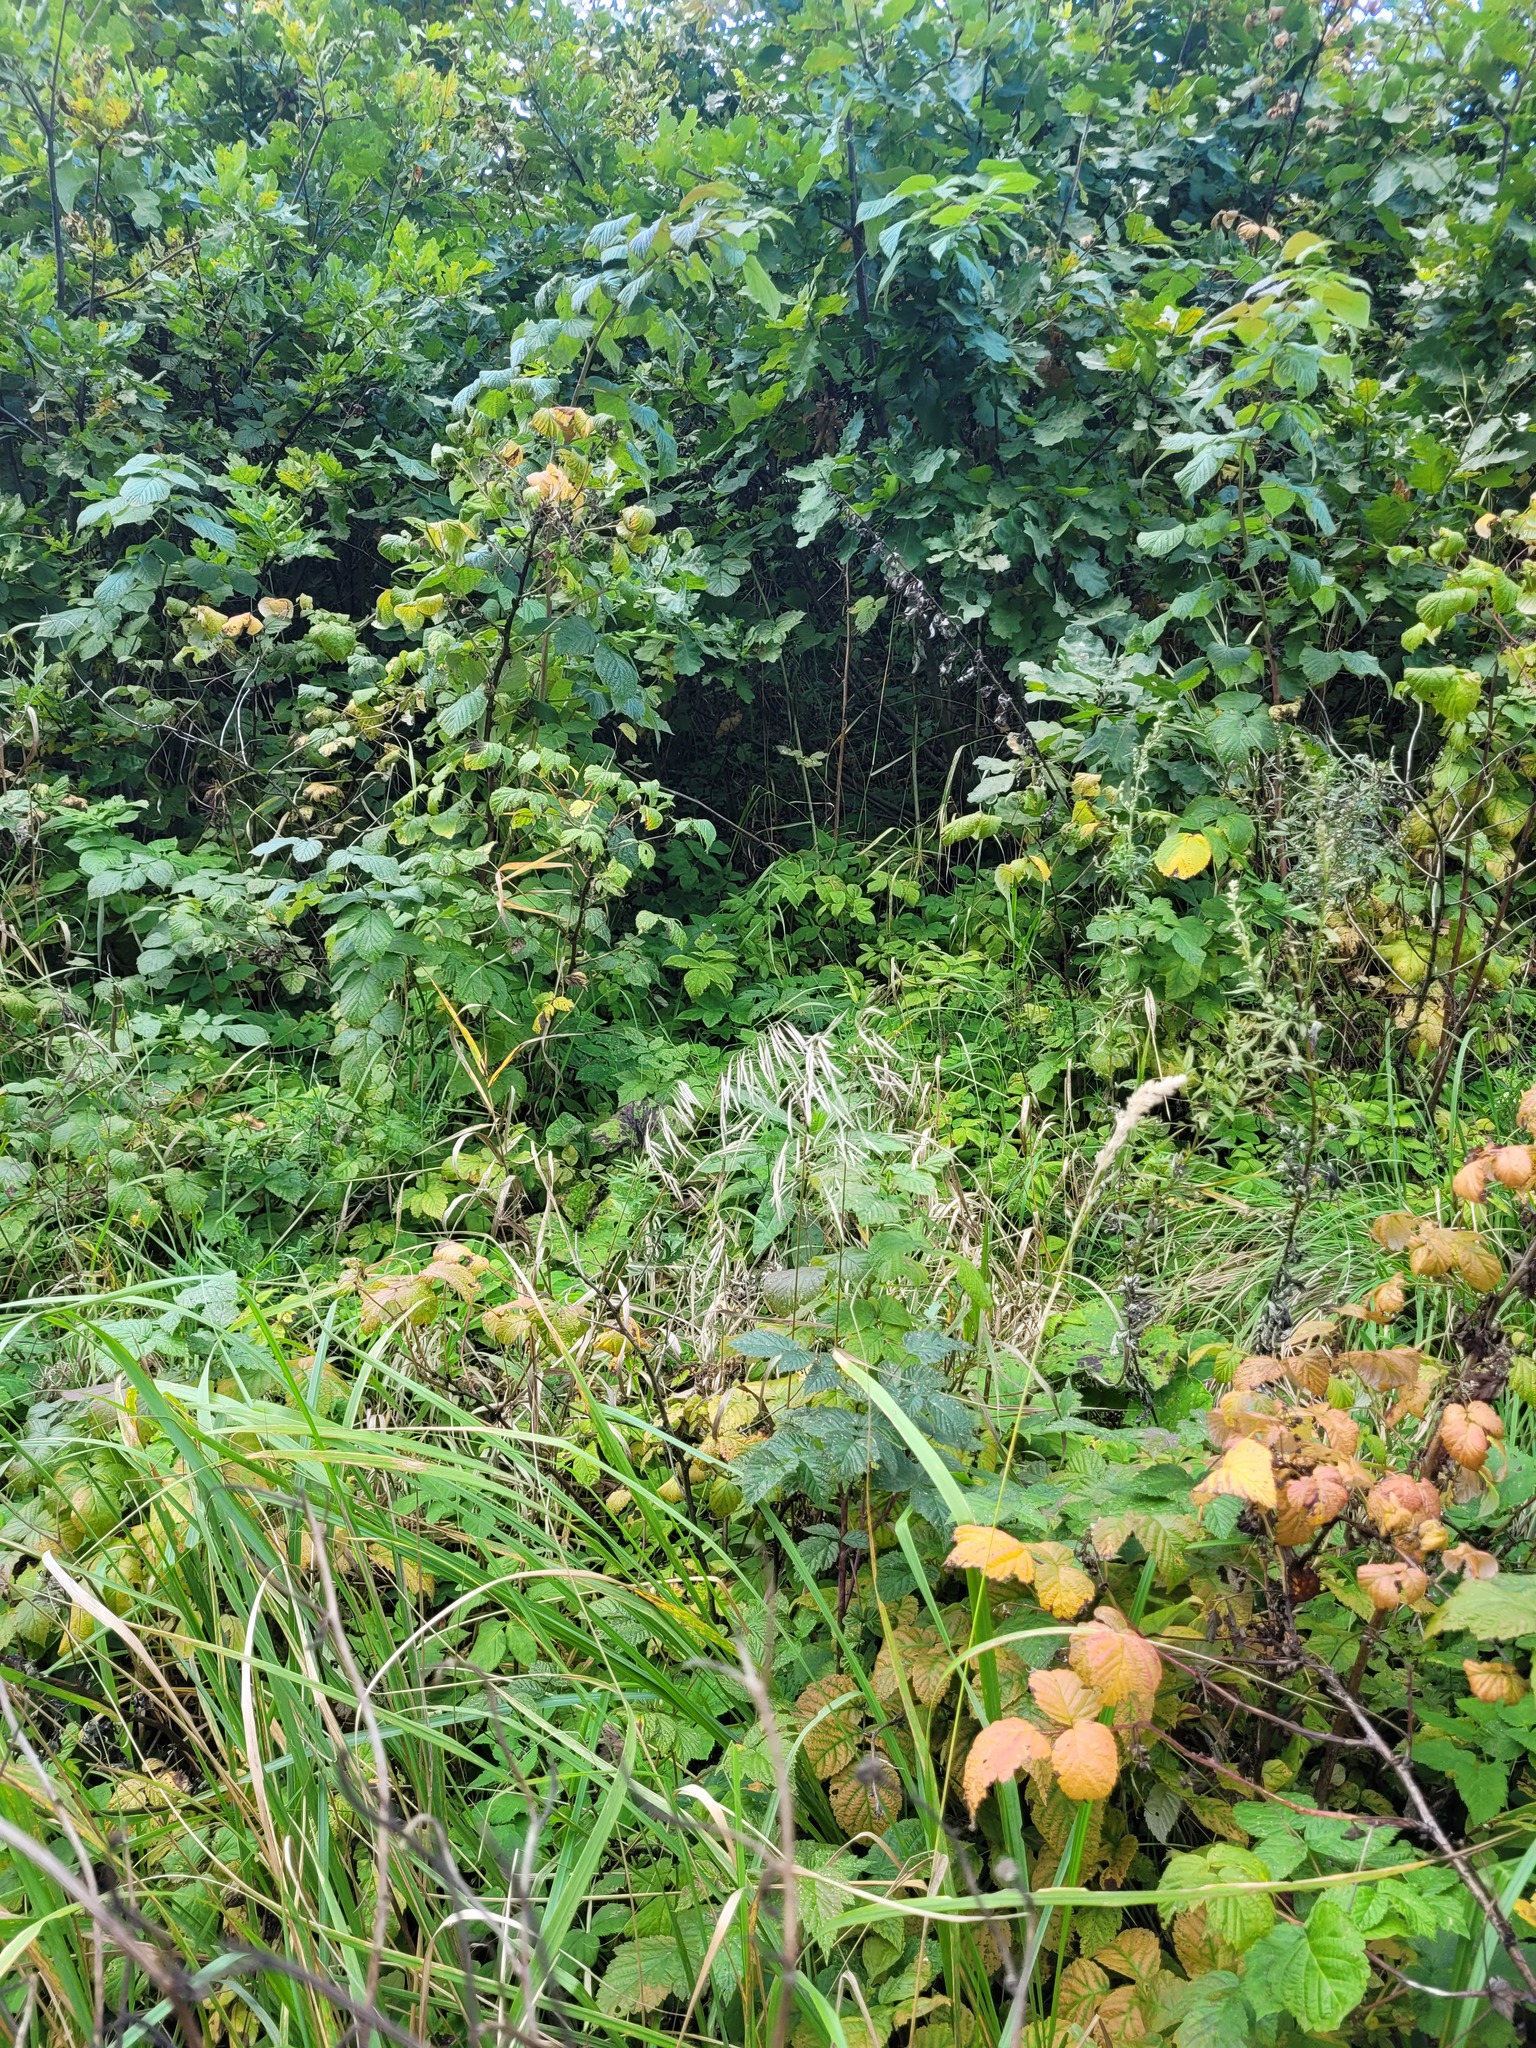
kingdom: Plantae
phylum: Tracheophyta
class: Liliopsida
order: Poales
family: Poaceae
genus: Bromus
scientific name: Bromus inermis
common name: Smooth brome
